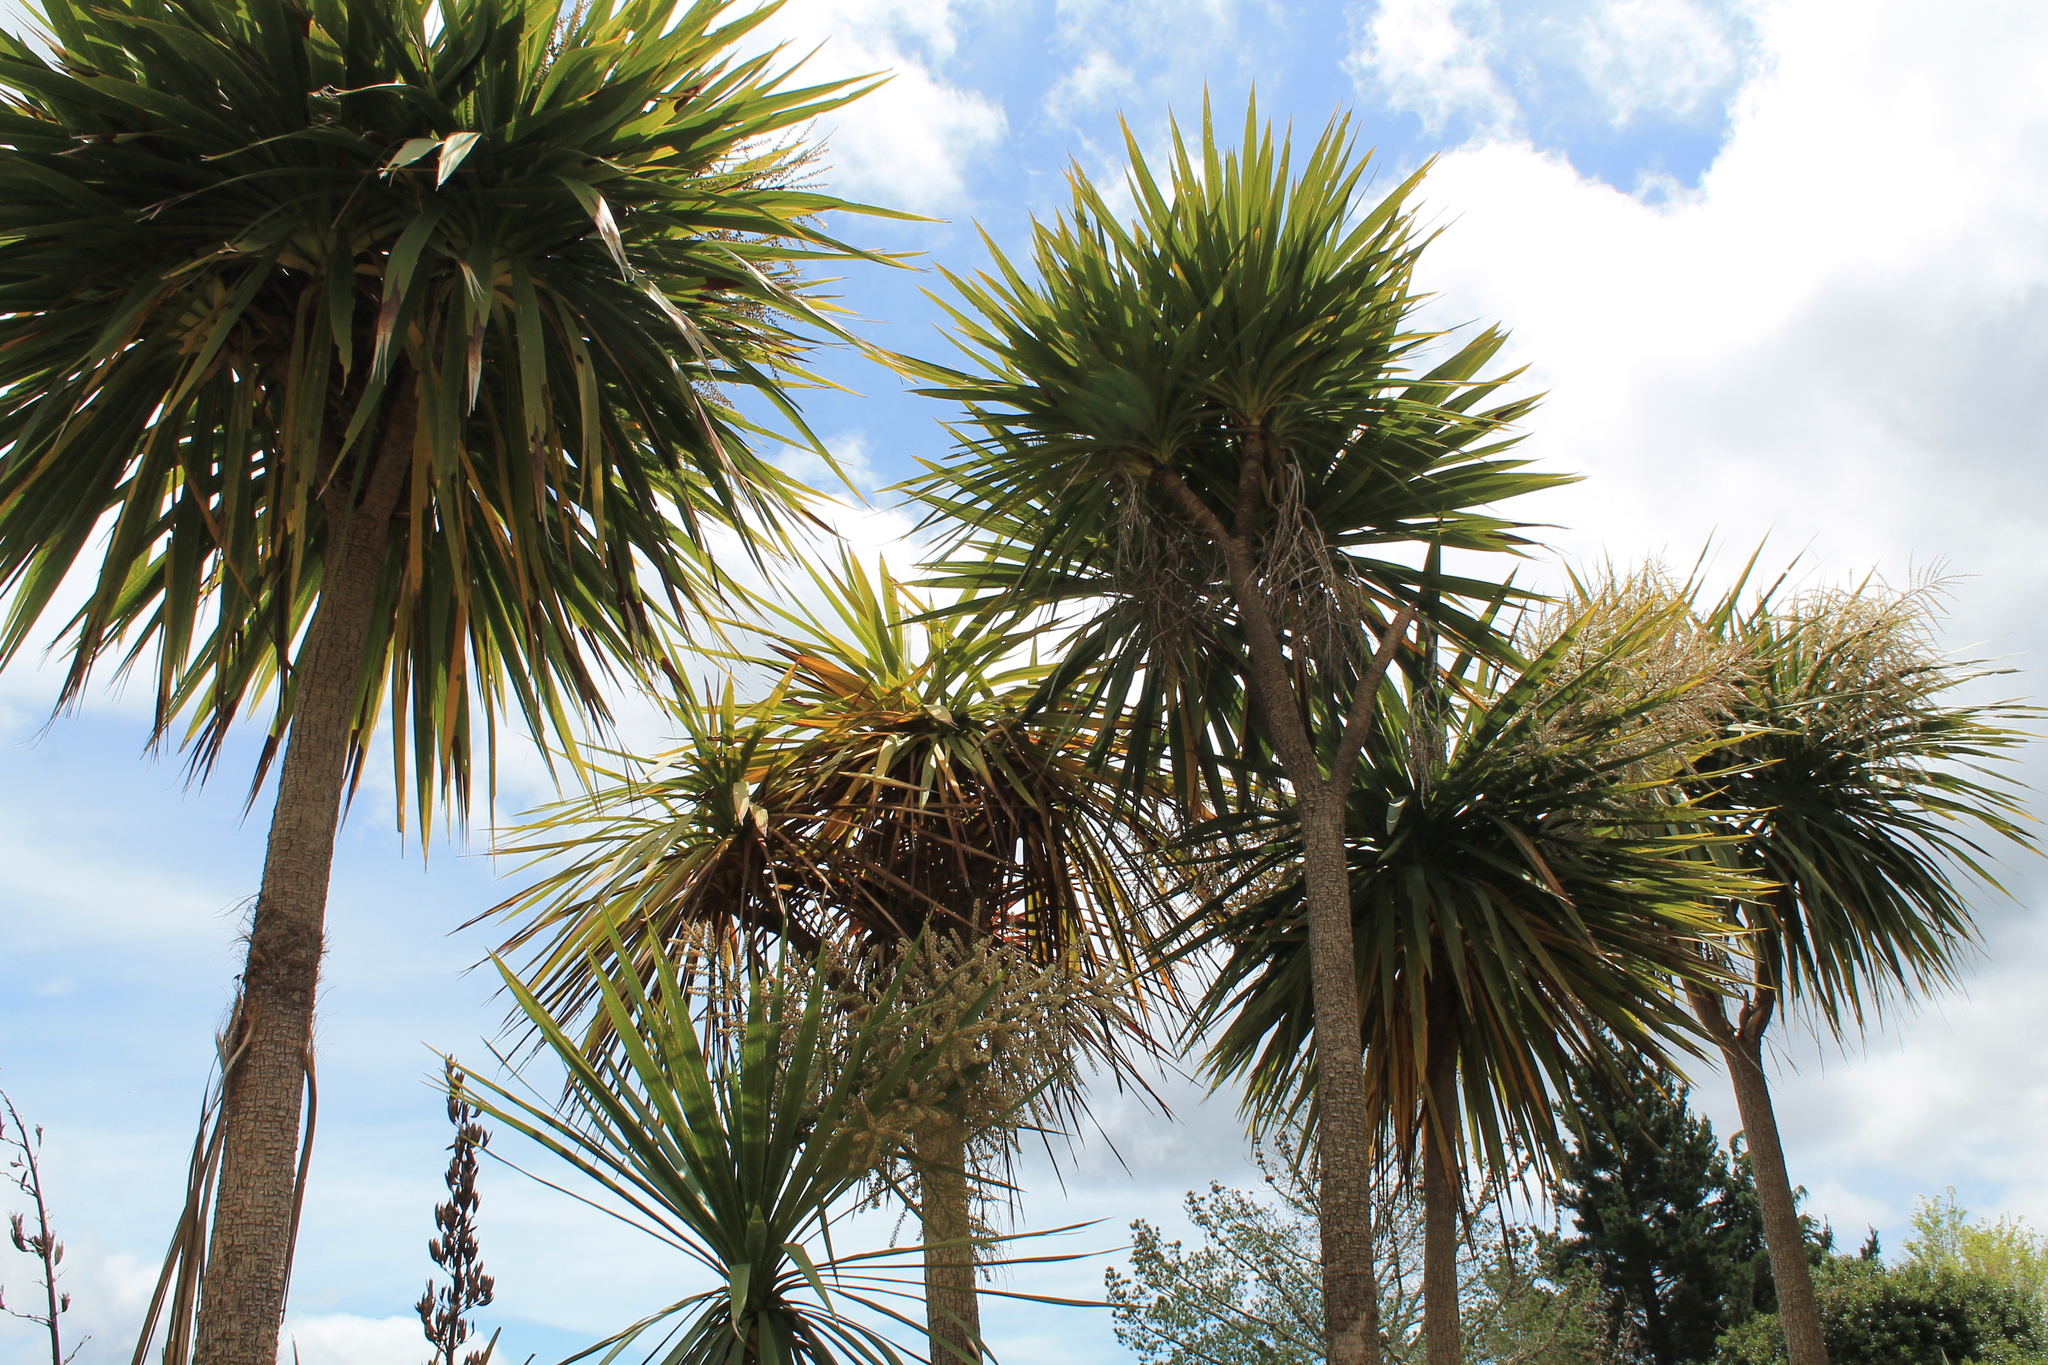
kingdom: Plantae
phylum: Tracheophyta
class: Liliopsida
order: Asparagales
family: Asparagaceae
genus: Cordyline
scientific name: Cordyline australis
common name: Cabbage-palm
